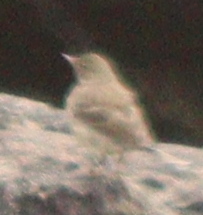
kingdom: Animalia
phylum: Chordata
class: Aves
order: Passeriformes
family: Motacillidae
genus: Anthus
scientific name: Anthus petrosus
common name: Eurasian rock pipit
